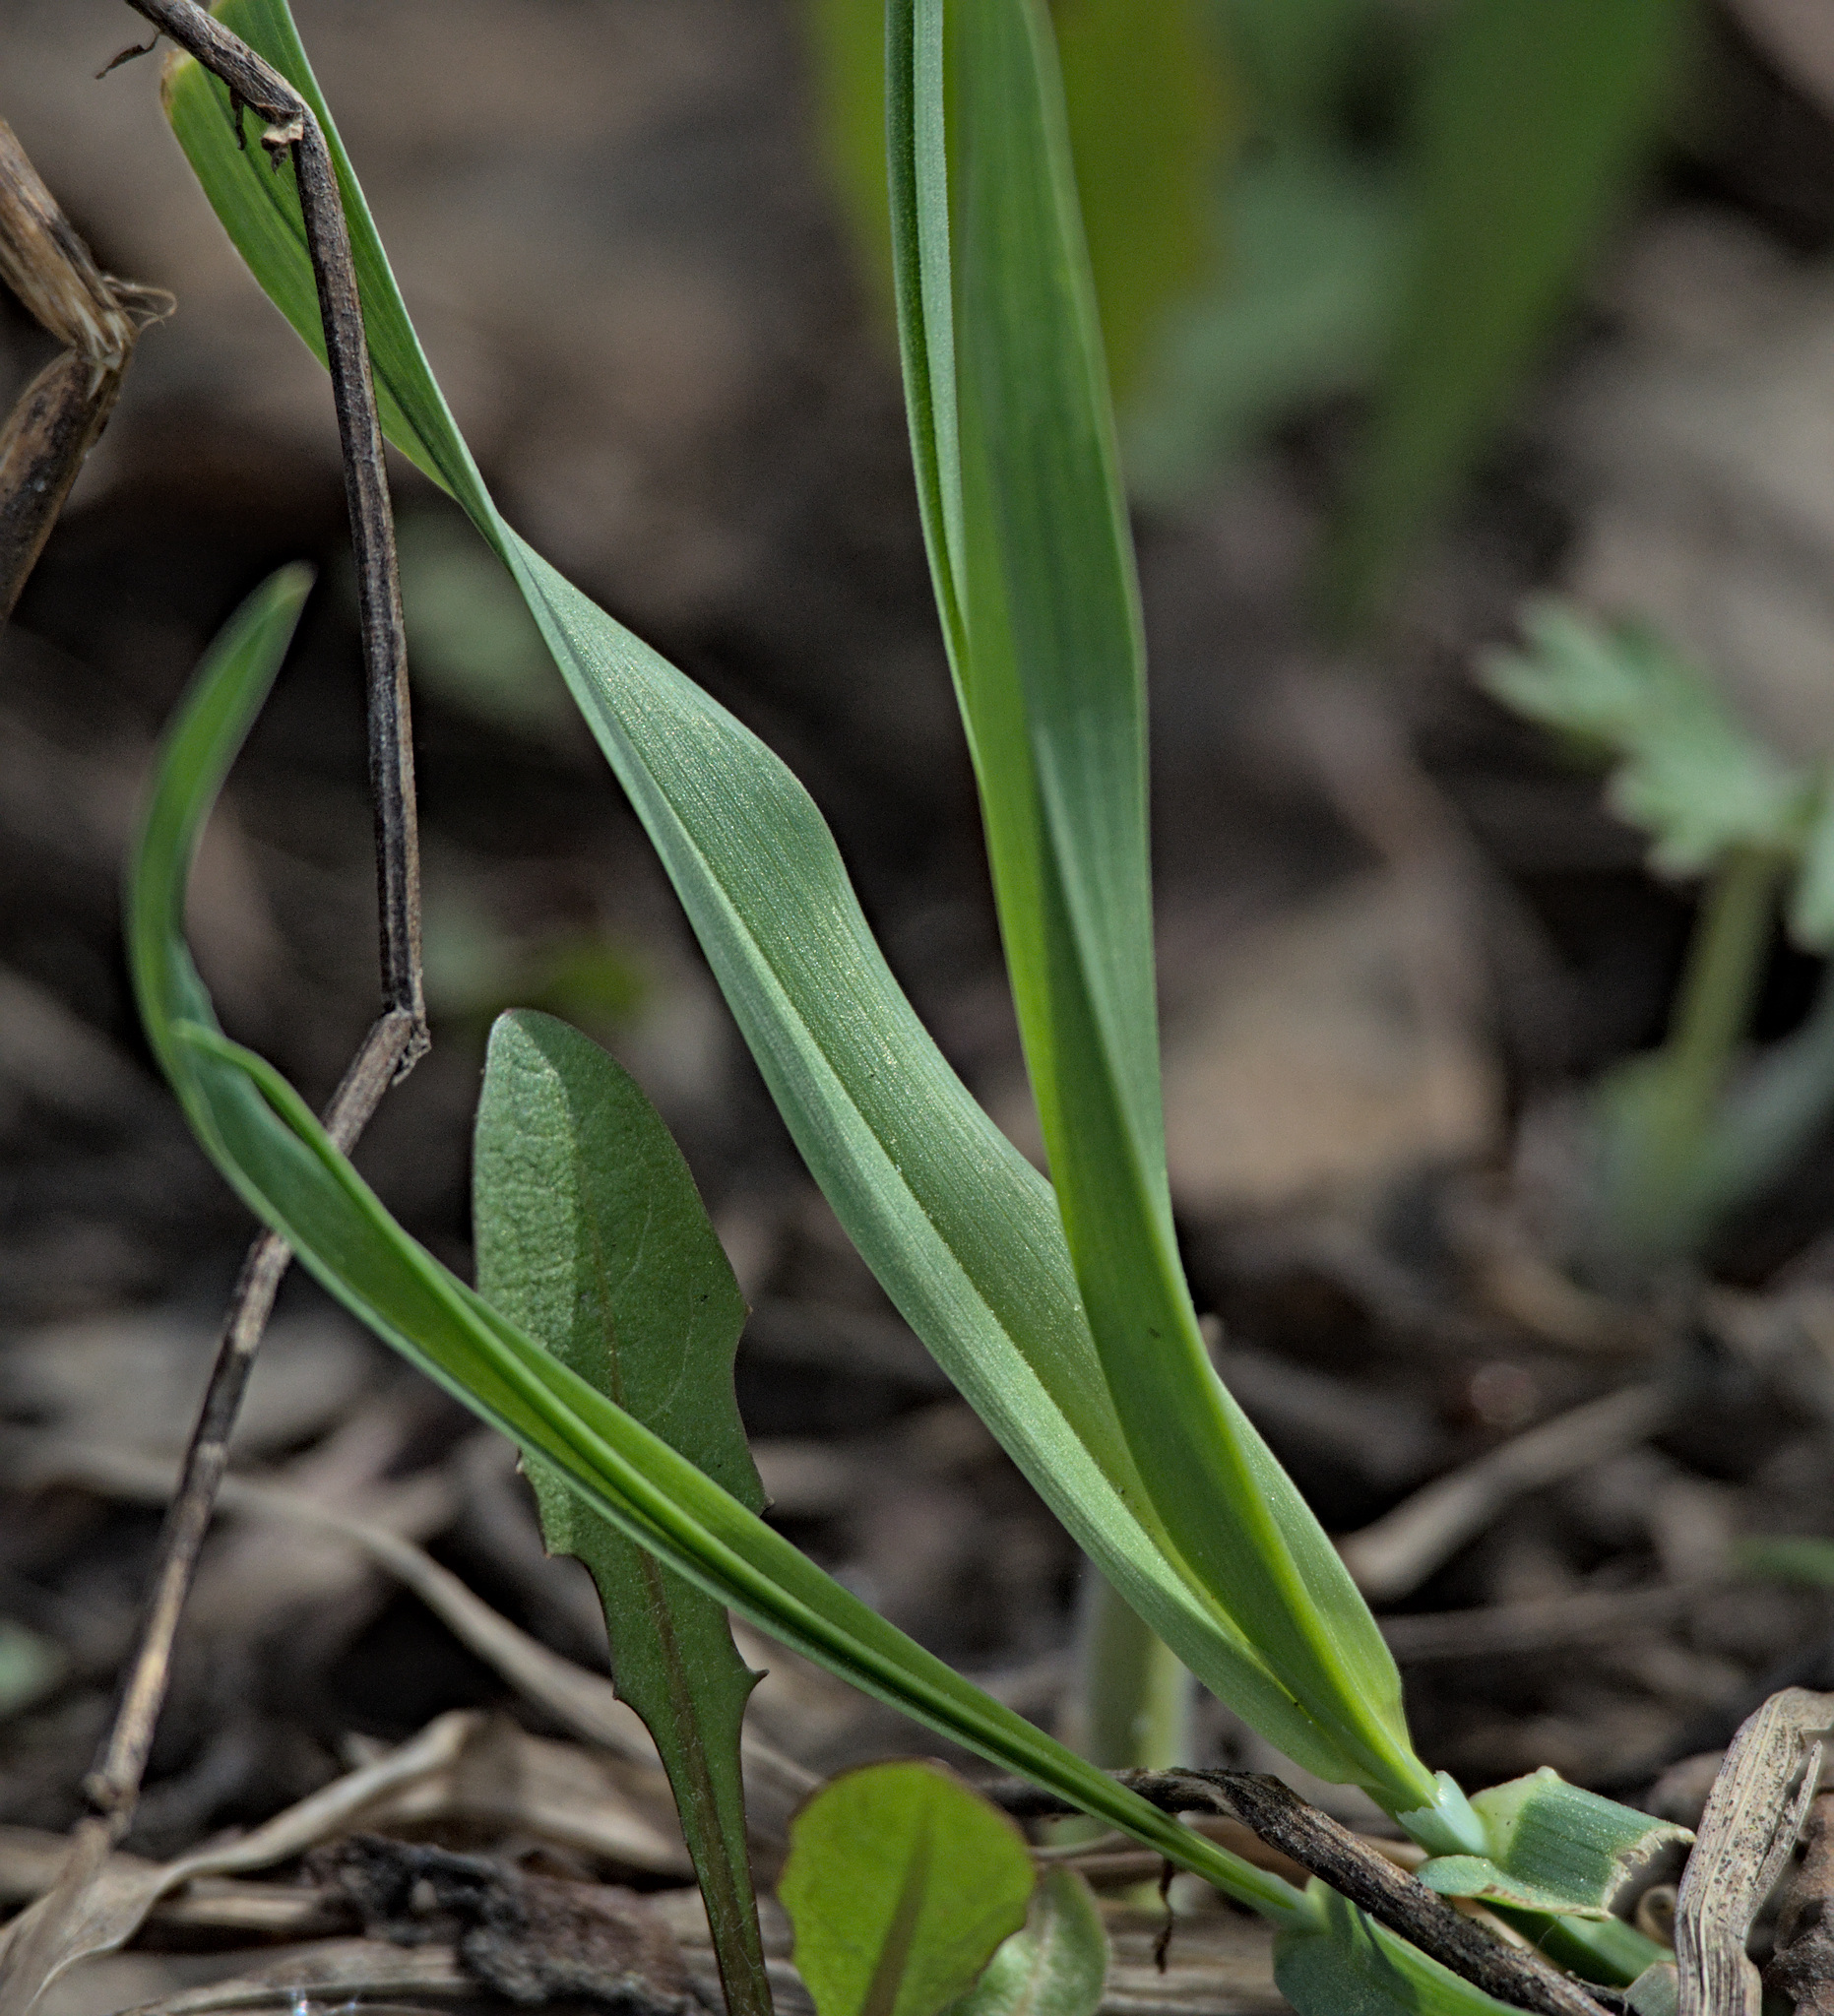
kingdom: Plantae
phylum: Tracheophyta
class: Liliopsida
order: Poales
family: Poaceae
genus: Milium
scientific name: Milium effusum
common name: Wood millet
